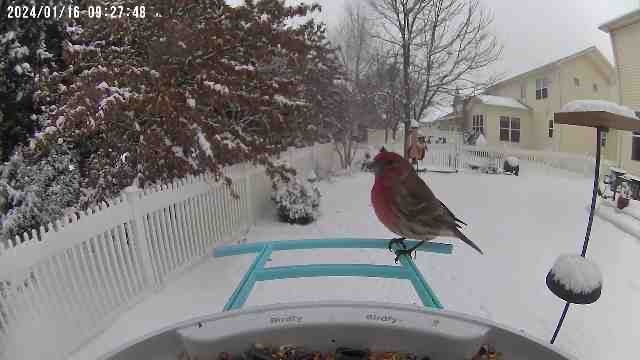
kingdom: Animalia
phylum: Chordata
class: Aves
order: Passeriformes
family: Fringillidae
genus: Haemorhous
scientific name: Haemorhous mexicanus
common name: House finch
